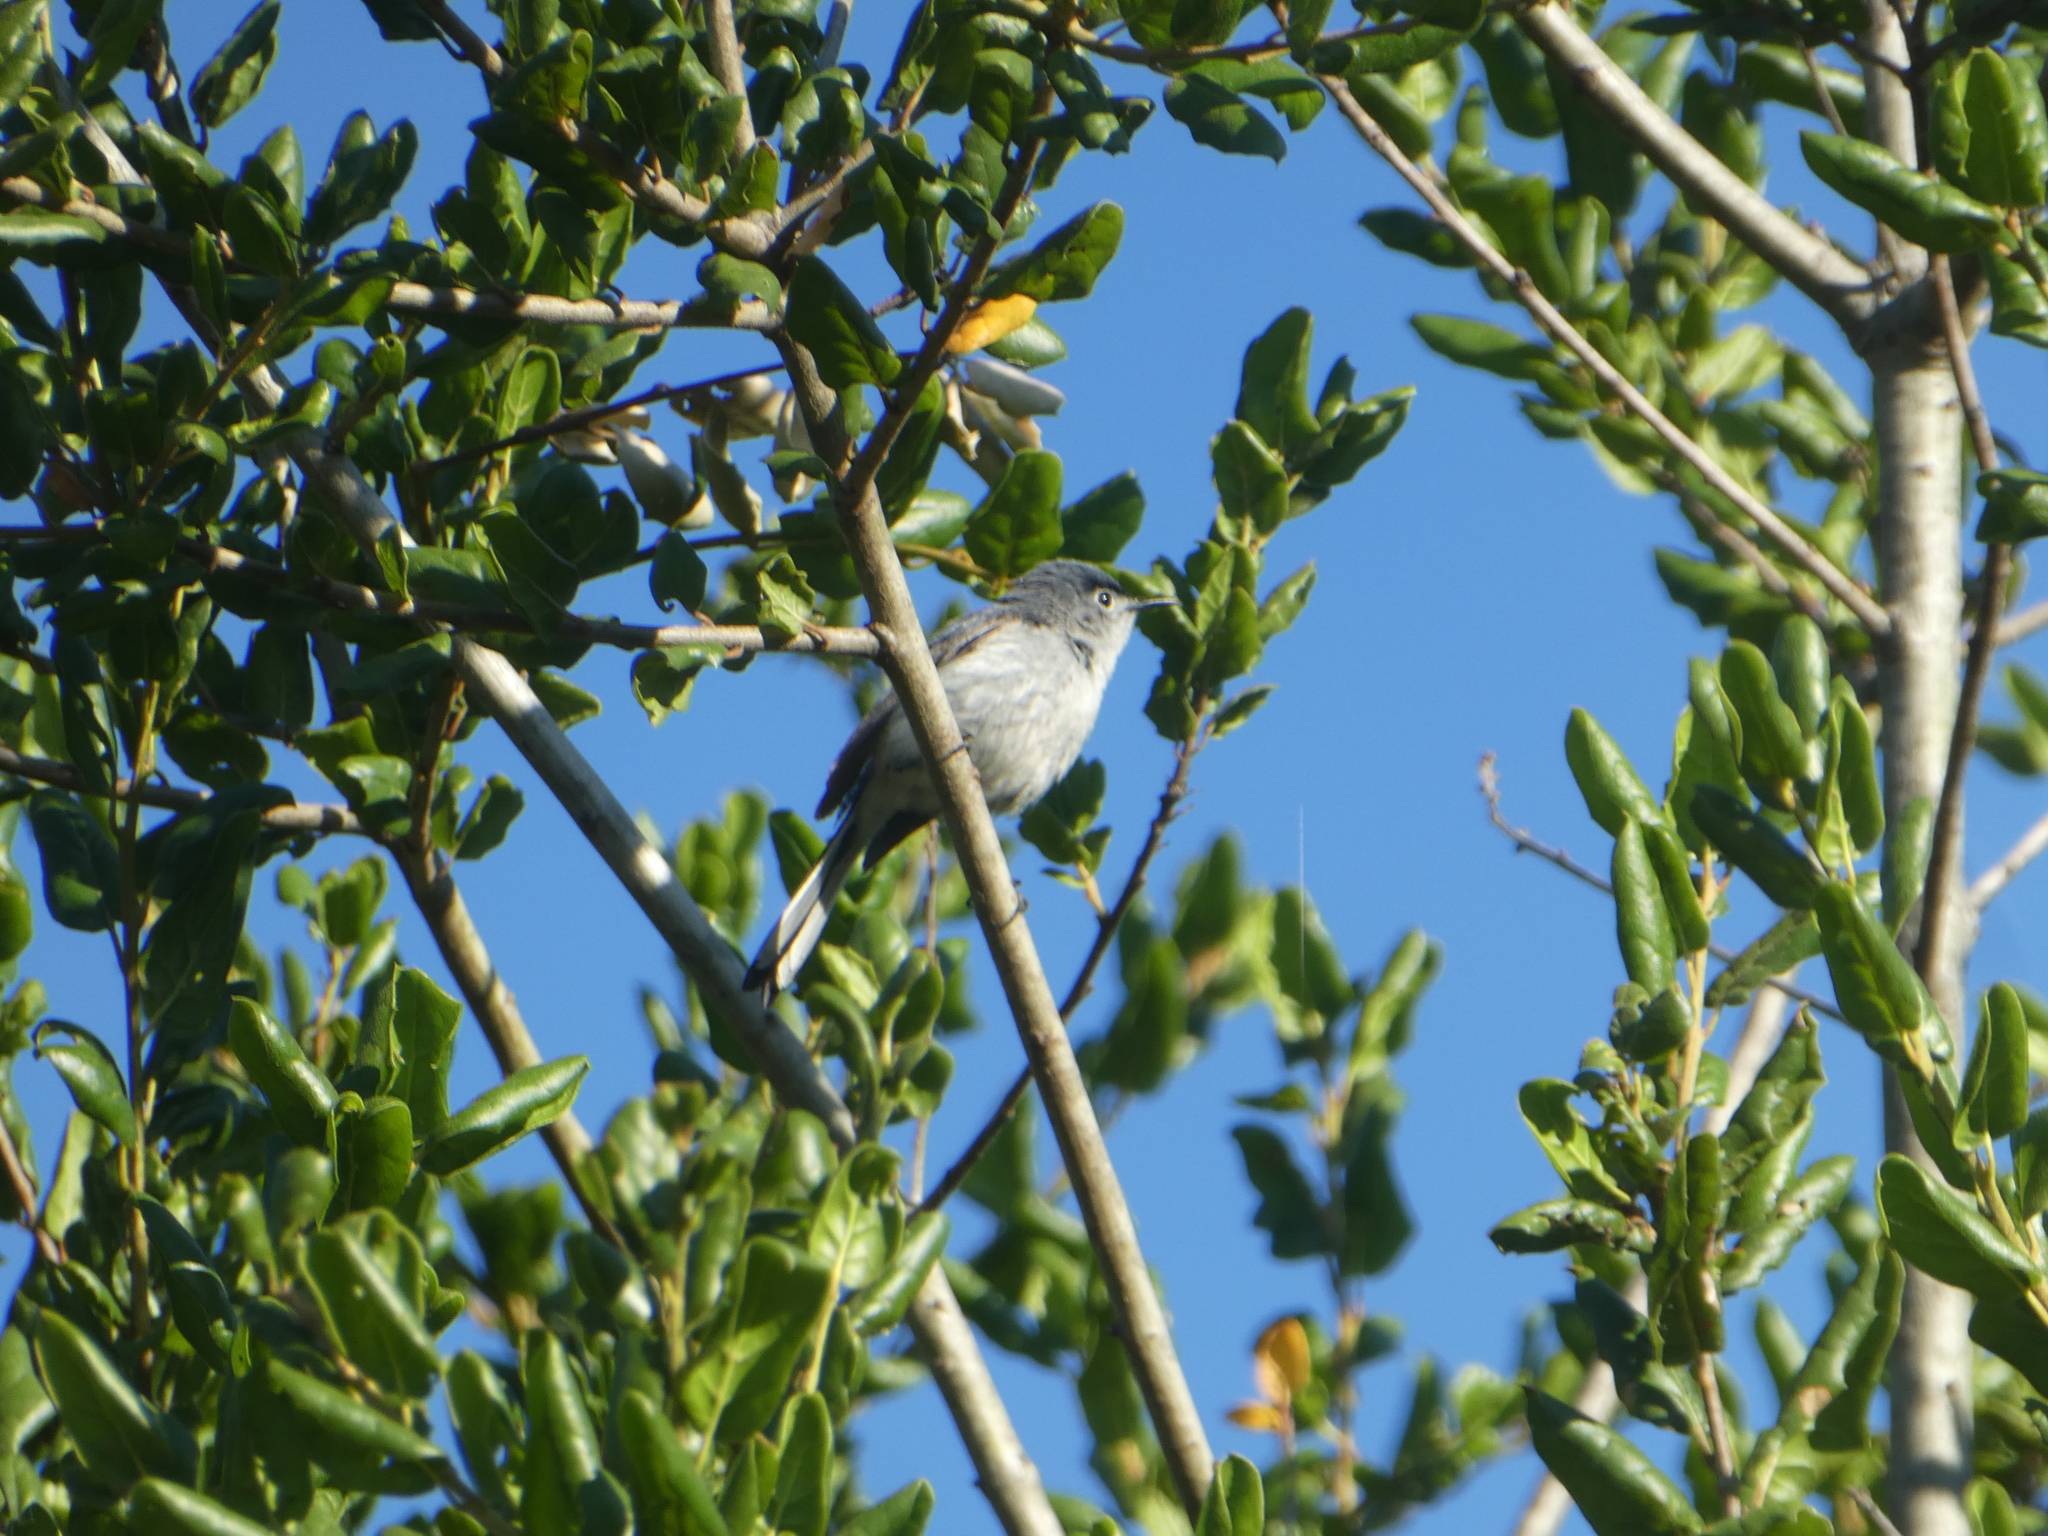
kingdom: Animalia
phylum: Chordata
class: Aves
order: Passeriformes
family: Polioptilidae
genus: Polioptila
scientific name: Polioptila caerulea
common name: Blue-gray gnatcatcher
